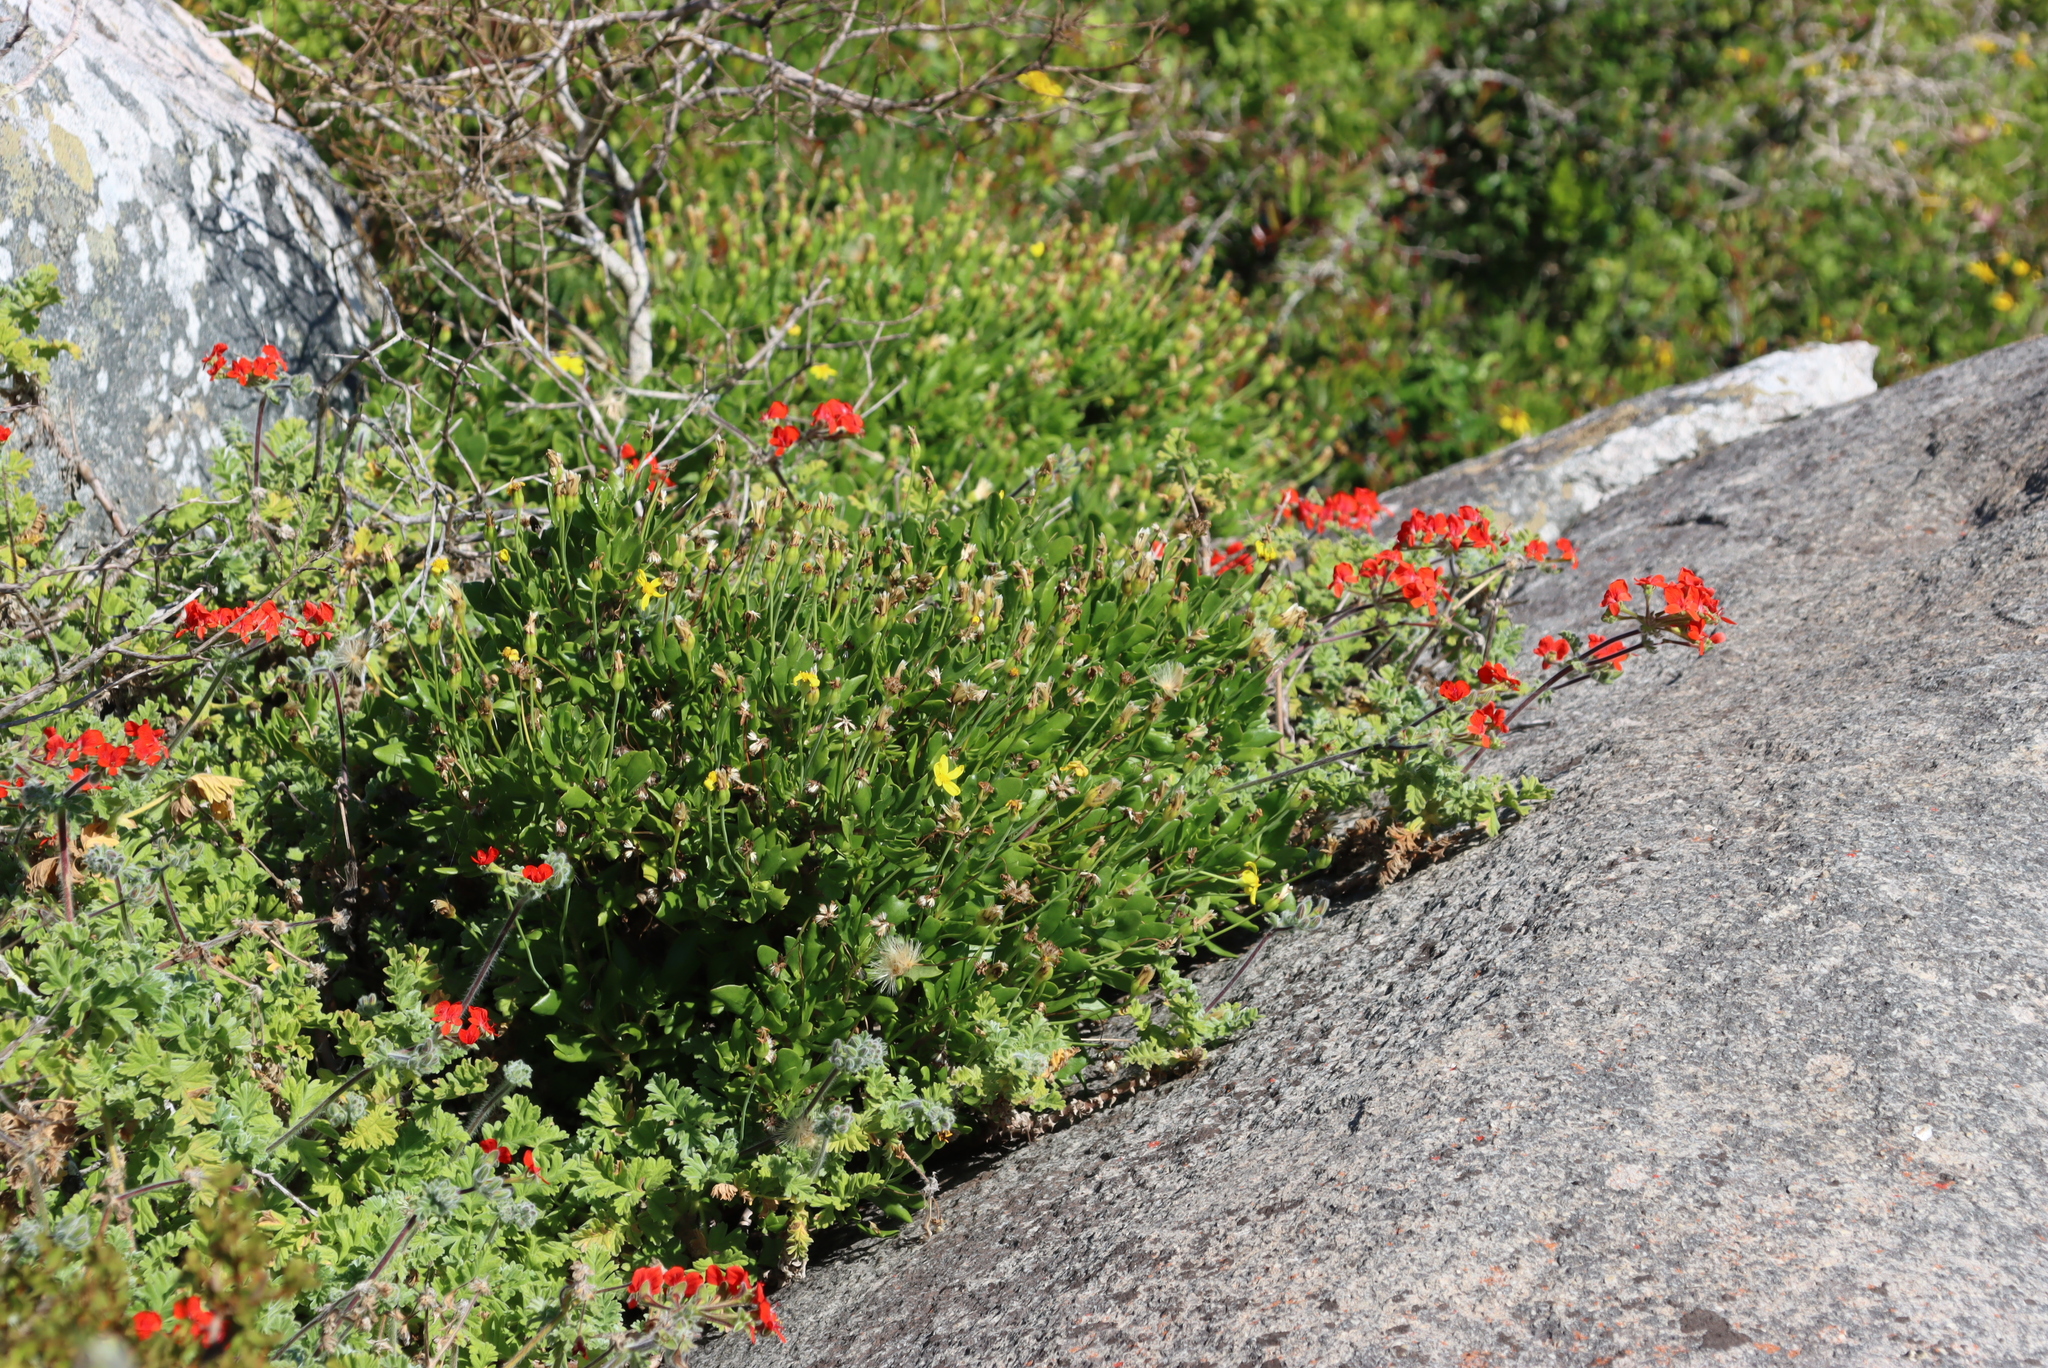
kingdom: Plantae
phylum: Tracheophyta
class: Magnoliopsida
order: Geraniales
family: Geraniaceae
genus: Pelargonium
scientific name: Pelargonium fulgidum
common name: Celandine-leaf pelargonium
